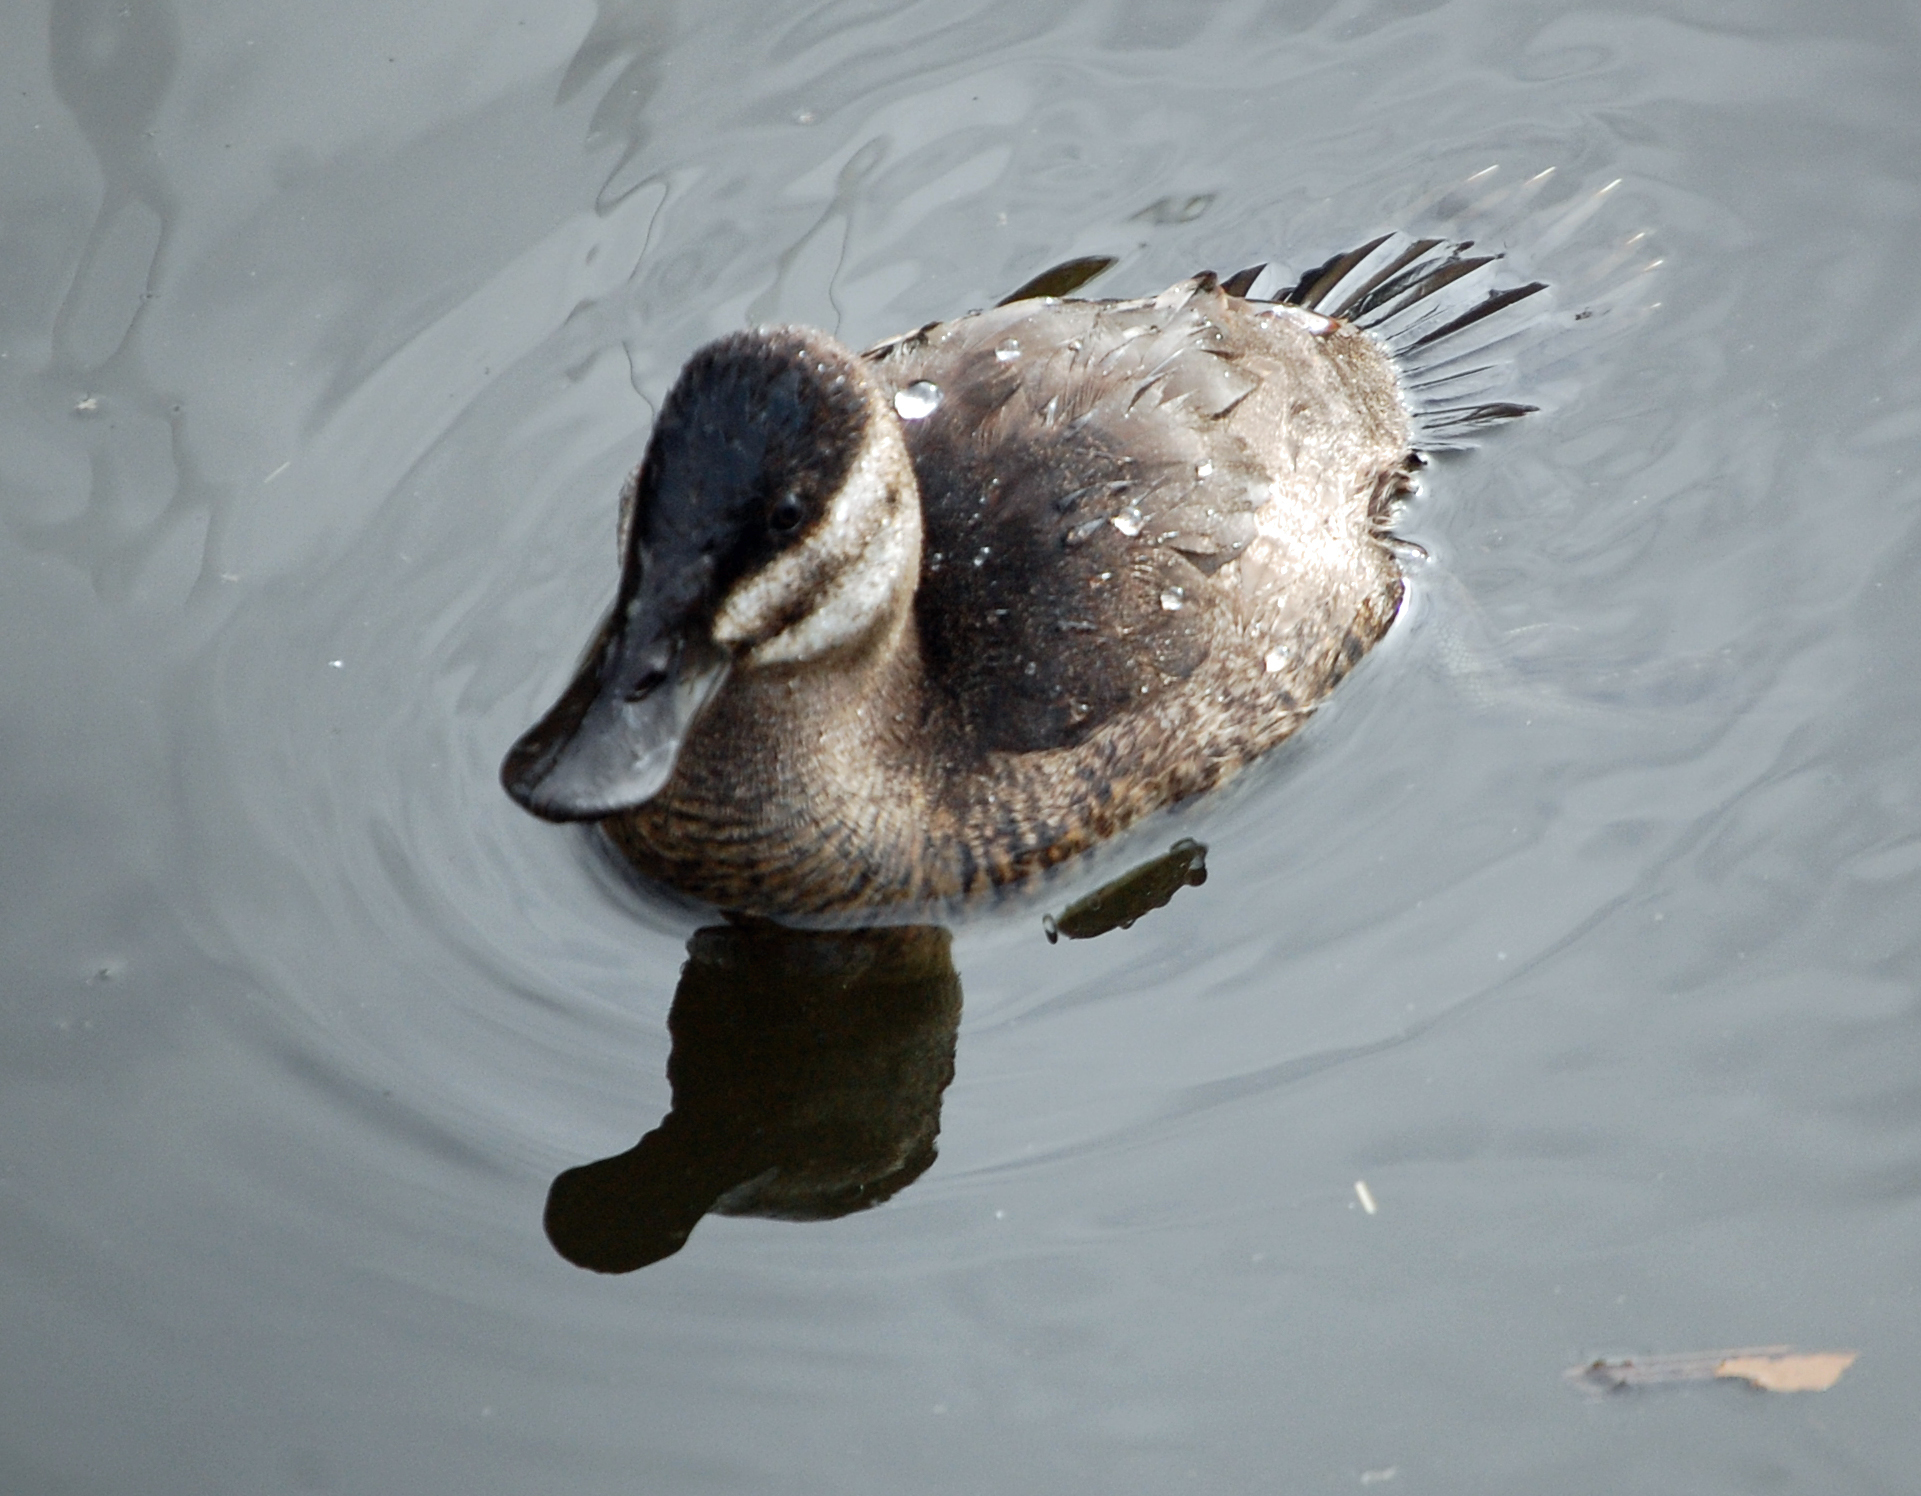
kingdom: Animalia
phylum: Chordata
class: Aves
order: Anseriformes
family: Anatidae
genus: Oxyura
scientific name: Oxyura jamaicensis
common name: Ruddy duck
